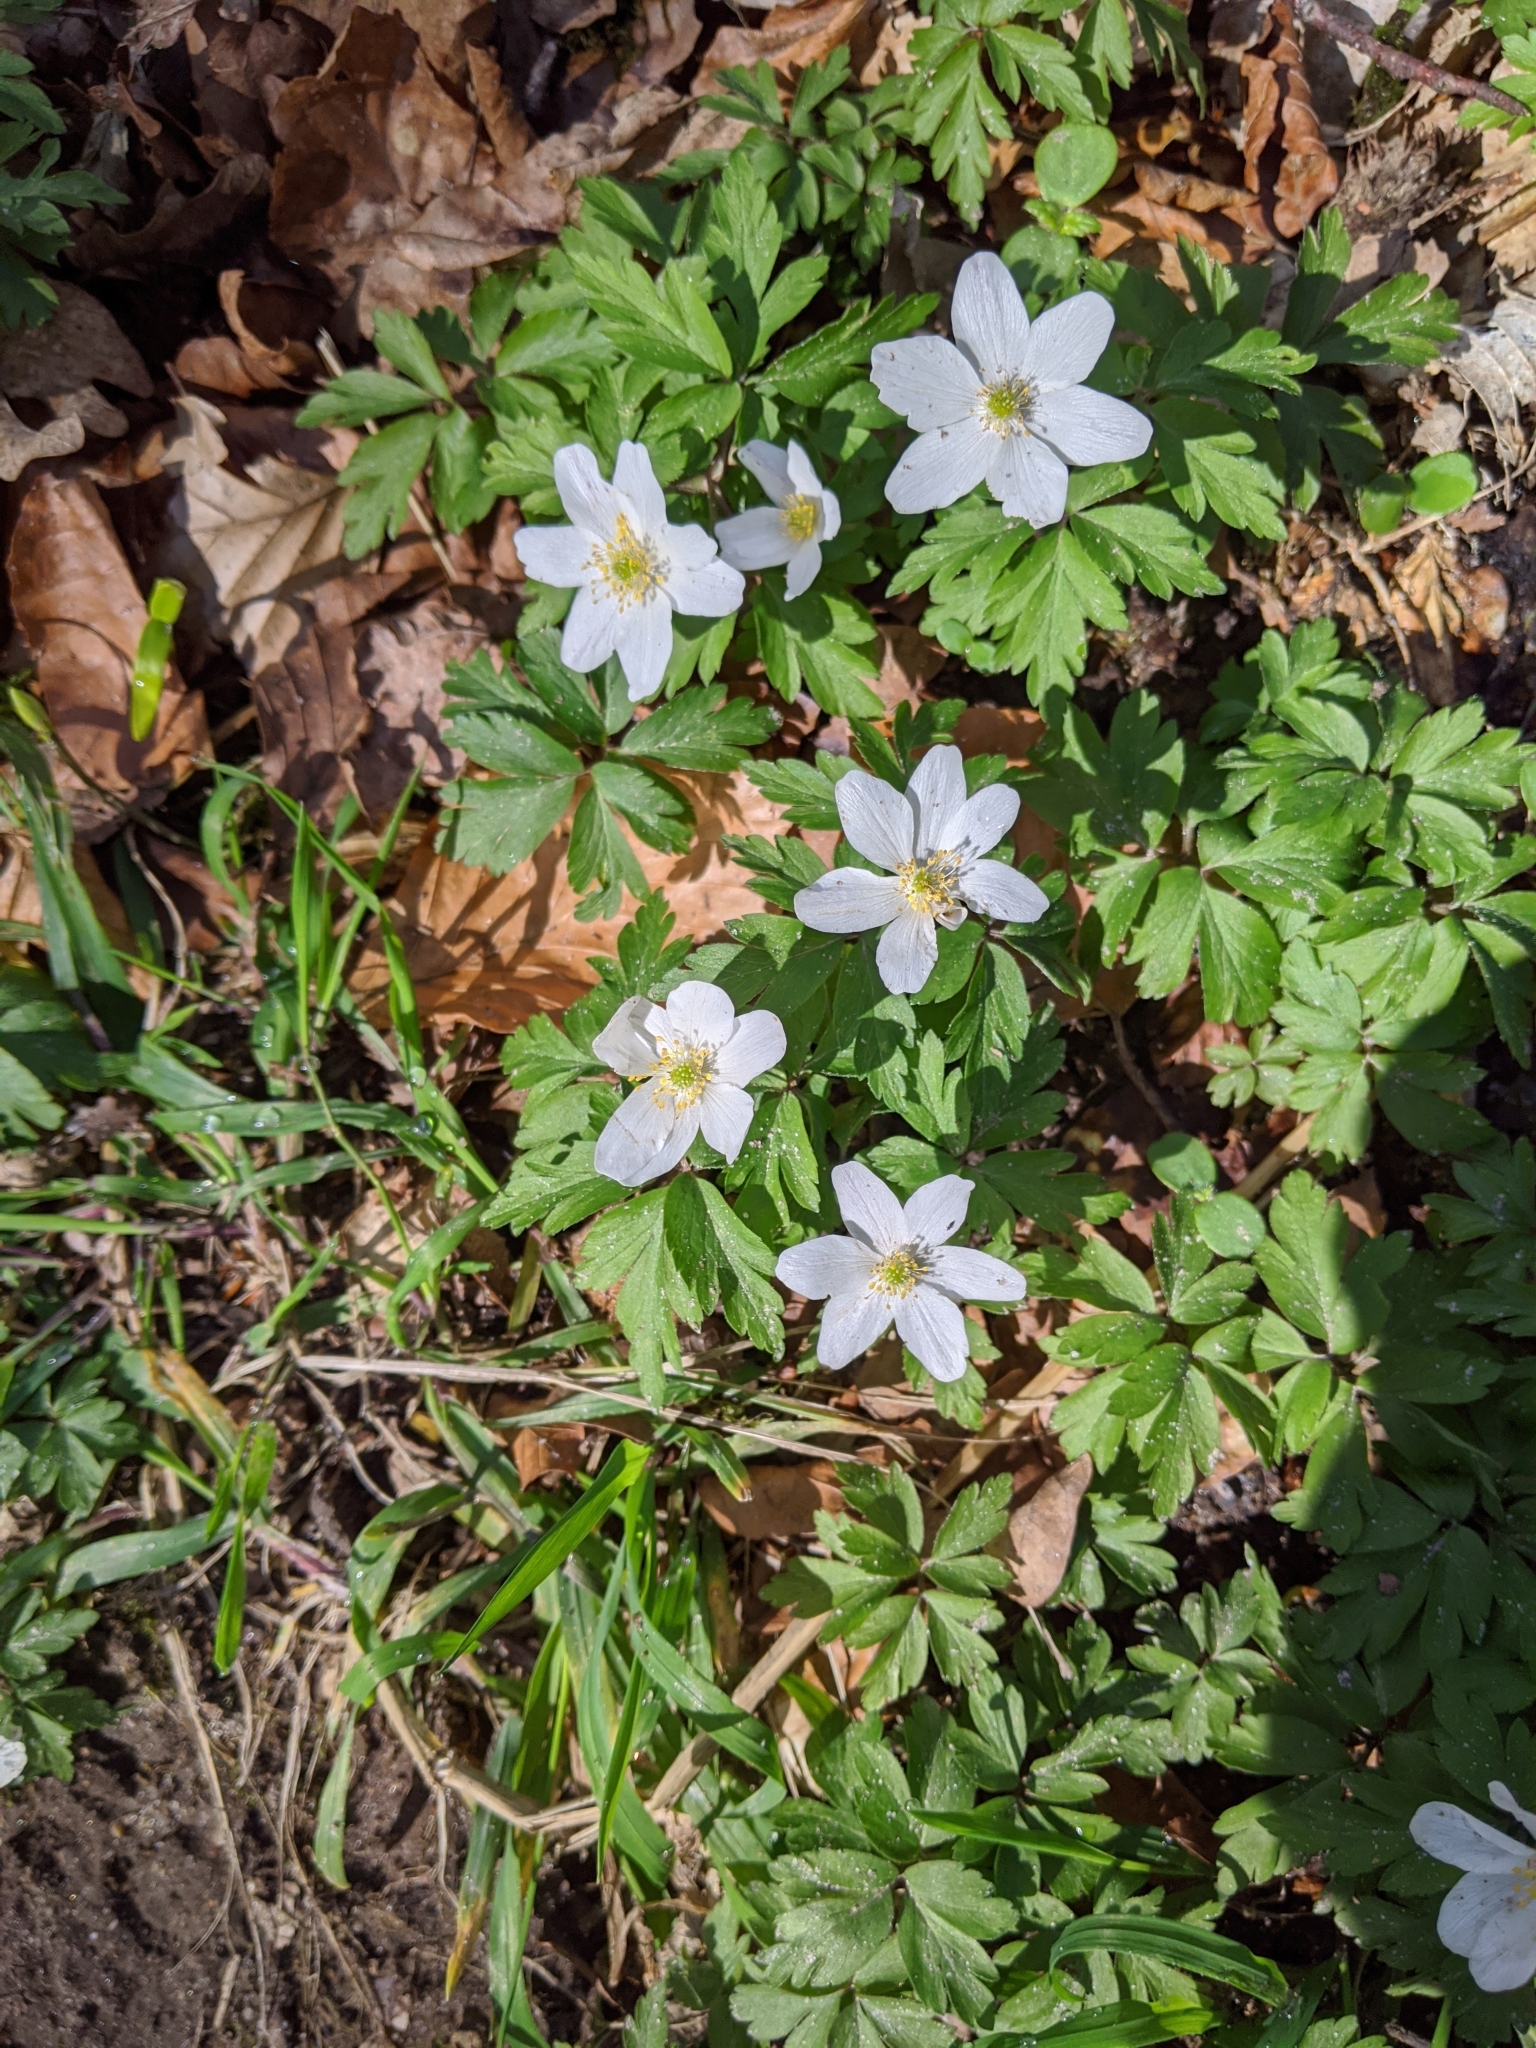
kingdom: Plantae
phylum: Tracheophyta
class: Magnoliopsida
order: Ranunculales
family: Ranunculaceae
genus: Anemone
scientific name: Anemone nemorosa
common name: Wood anemone
